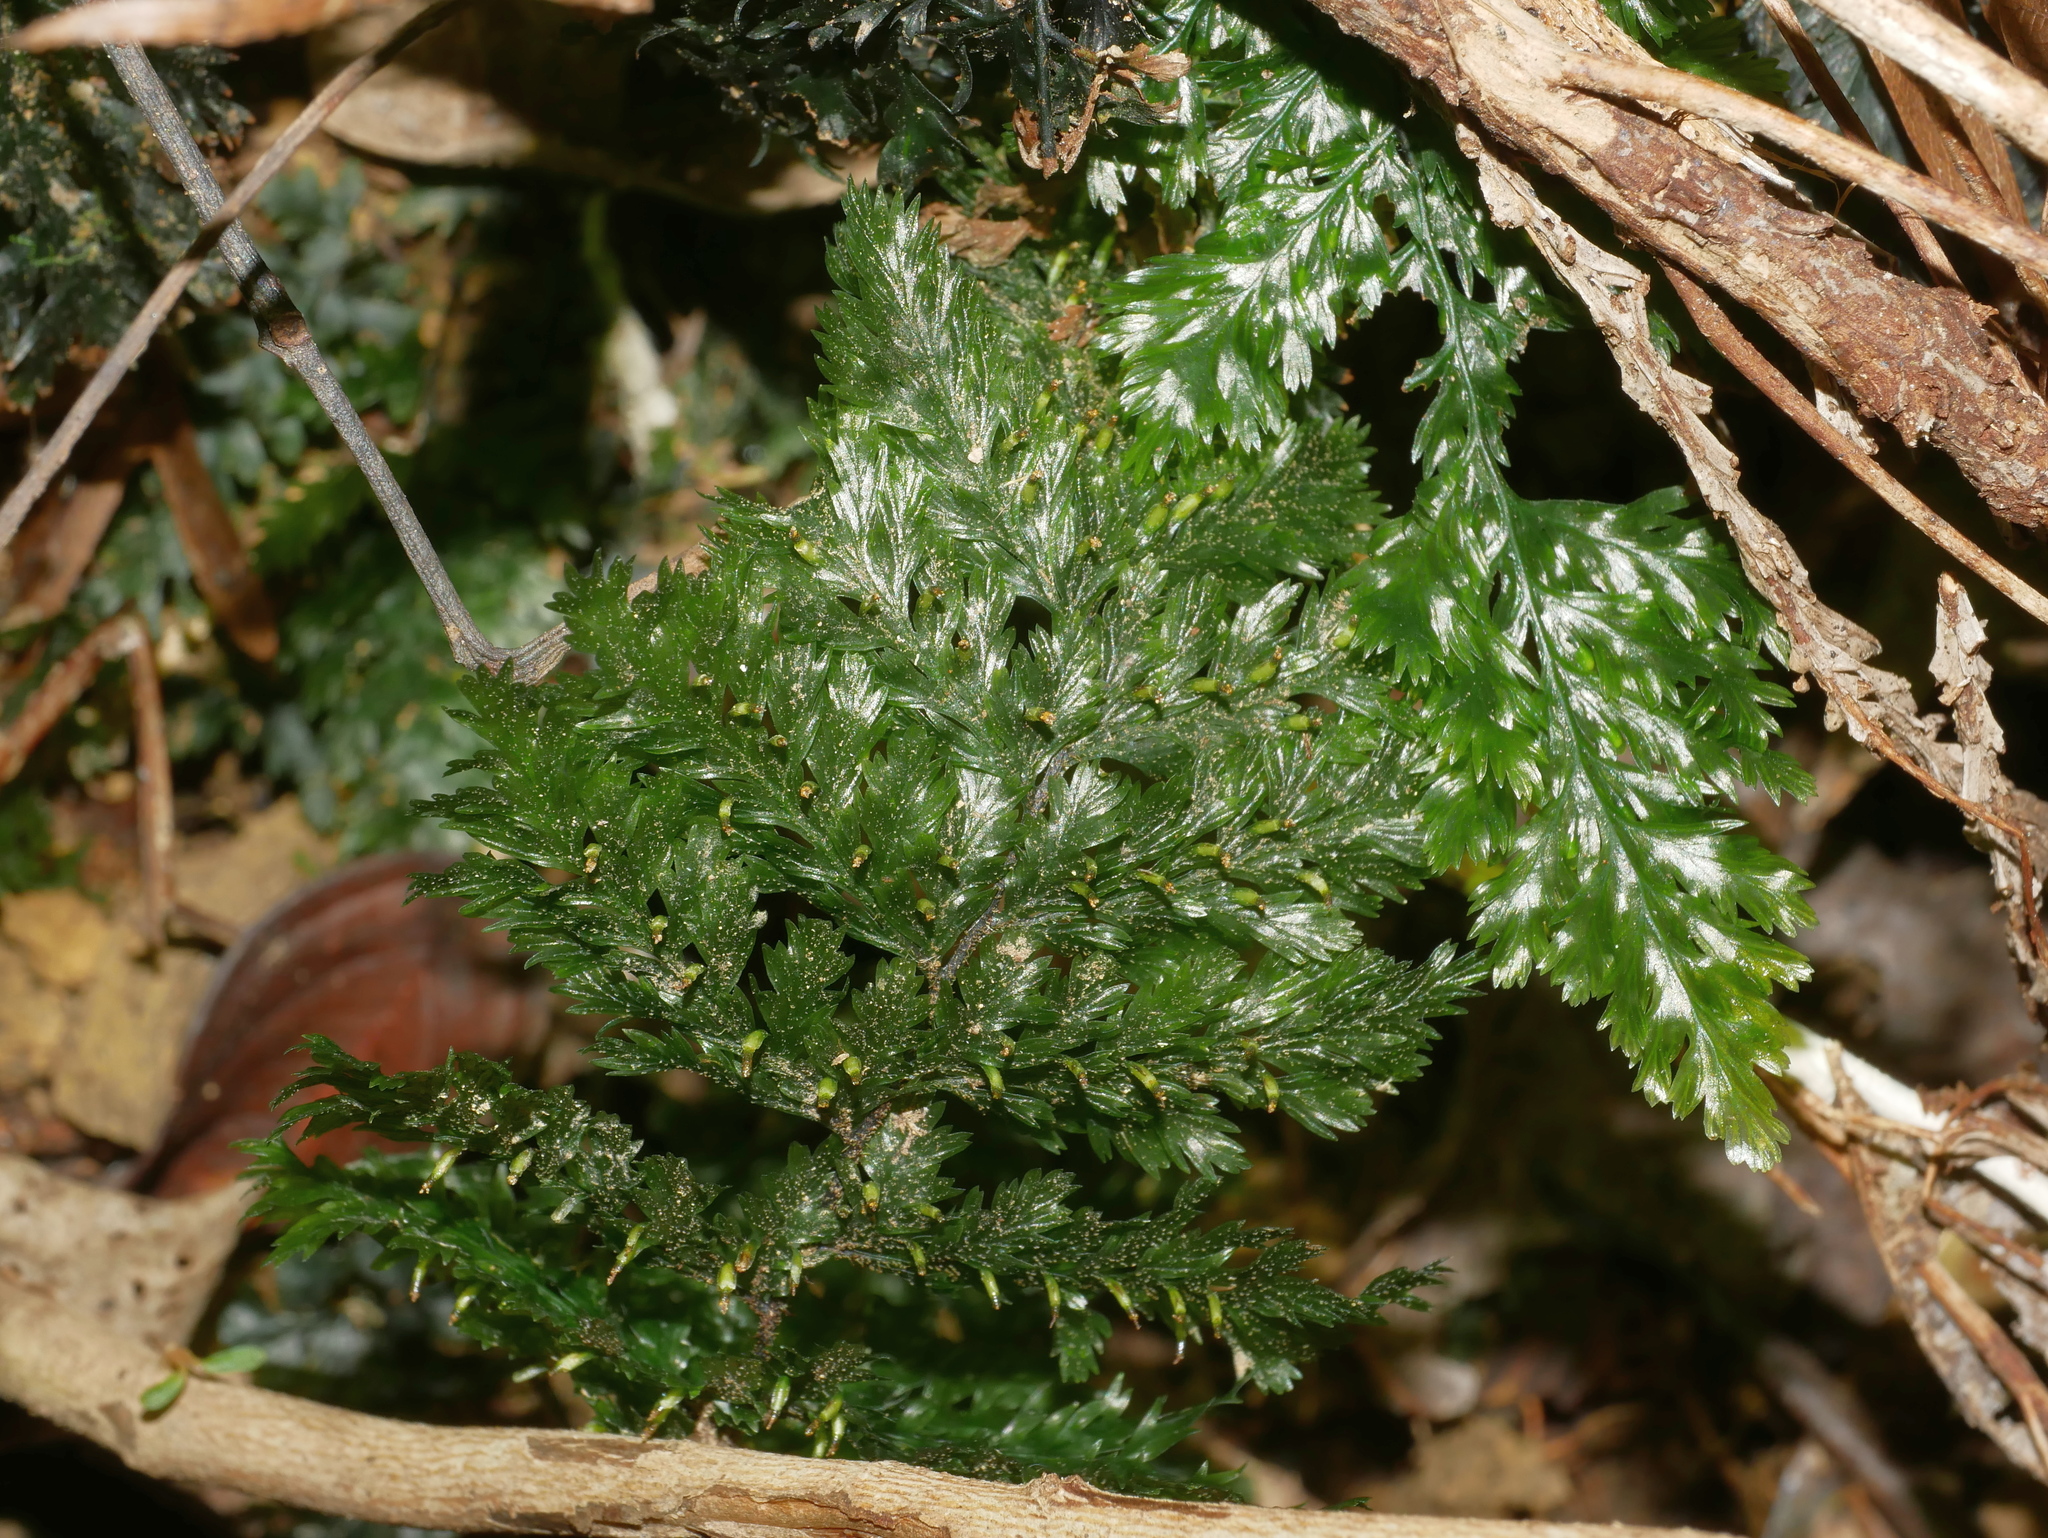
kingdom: Plantae
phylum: Tracheophyta
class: Polypodiopsida
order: Hymenophyllales
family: Hymenophyllaceae
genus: Abrodictyum
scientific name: Abrodictyum obscurum
